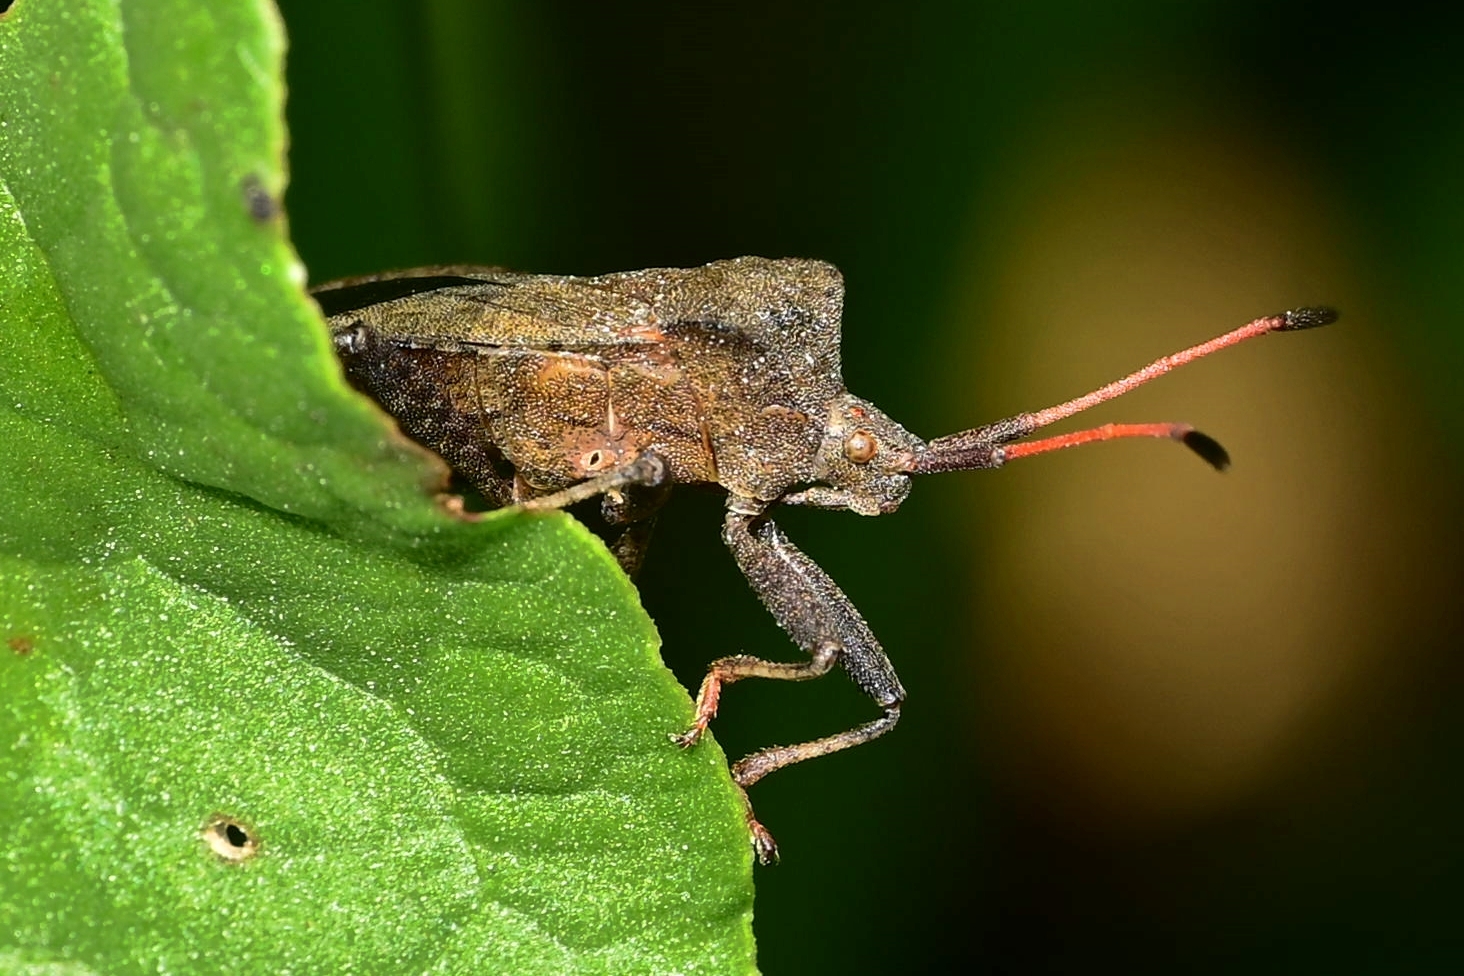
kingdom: Animalia
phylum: Arthropoda
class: Insecta
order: Hemiptera
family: Coreidae
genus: Coreus
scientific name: Coreus marginatus
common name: Dock bug
